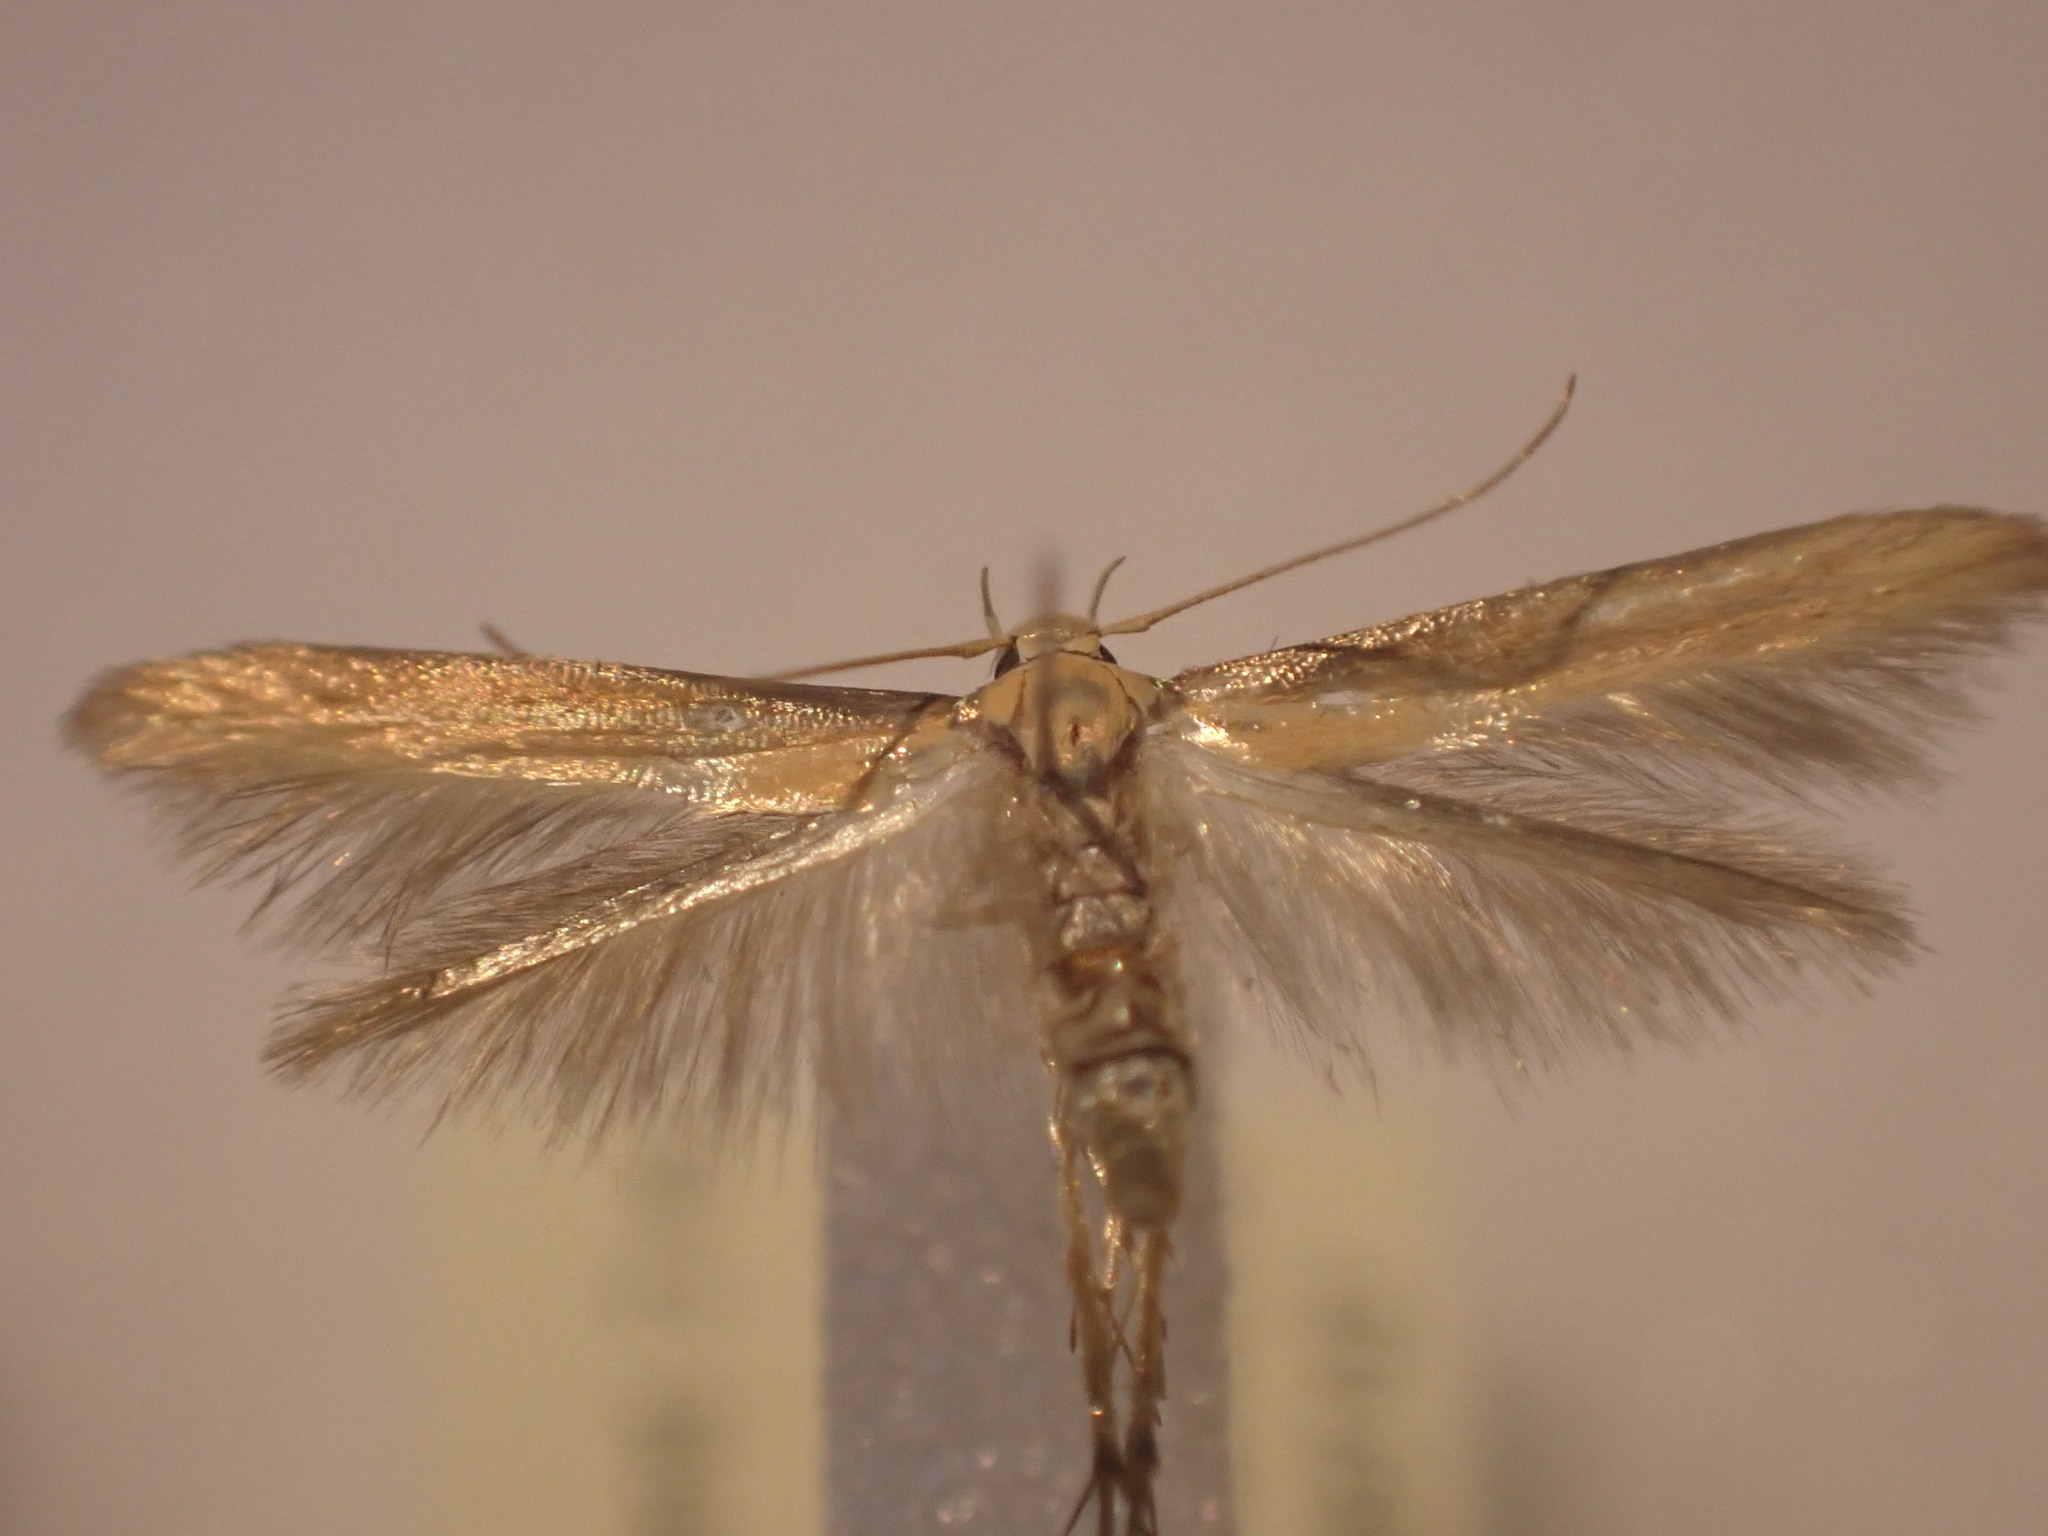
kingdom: Animalia
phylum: Arthropoda
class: Insecta
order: Lepidoptera
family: Stathmopodidae
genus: Stathmopoda
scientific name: Stathmopoda skelloni
